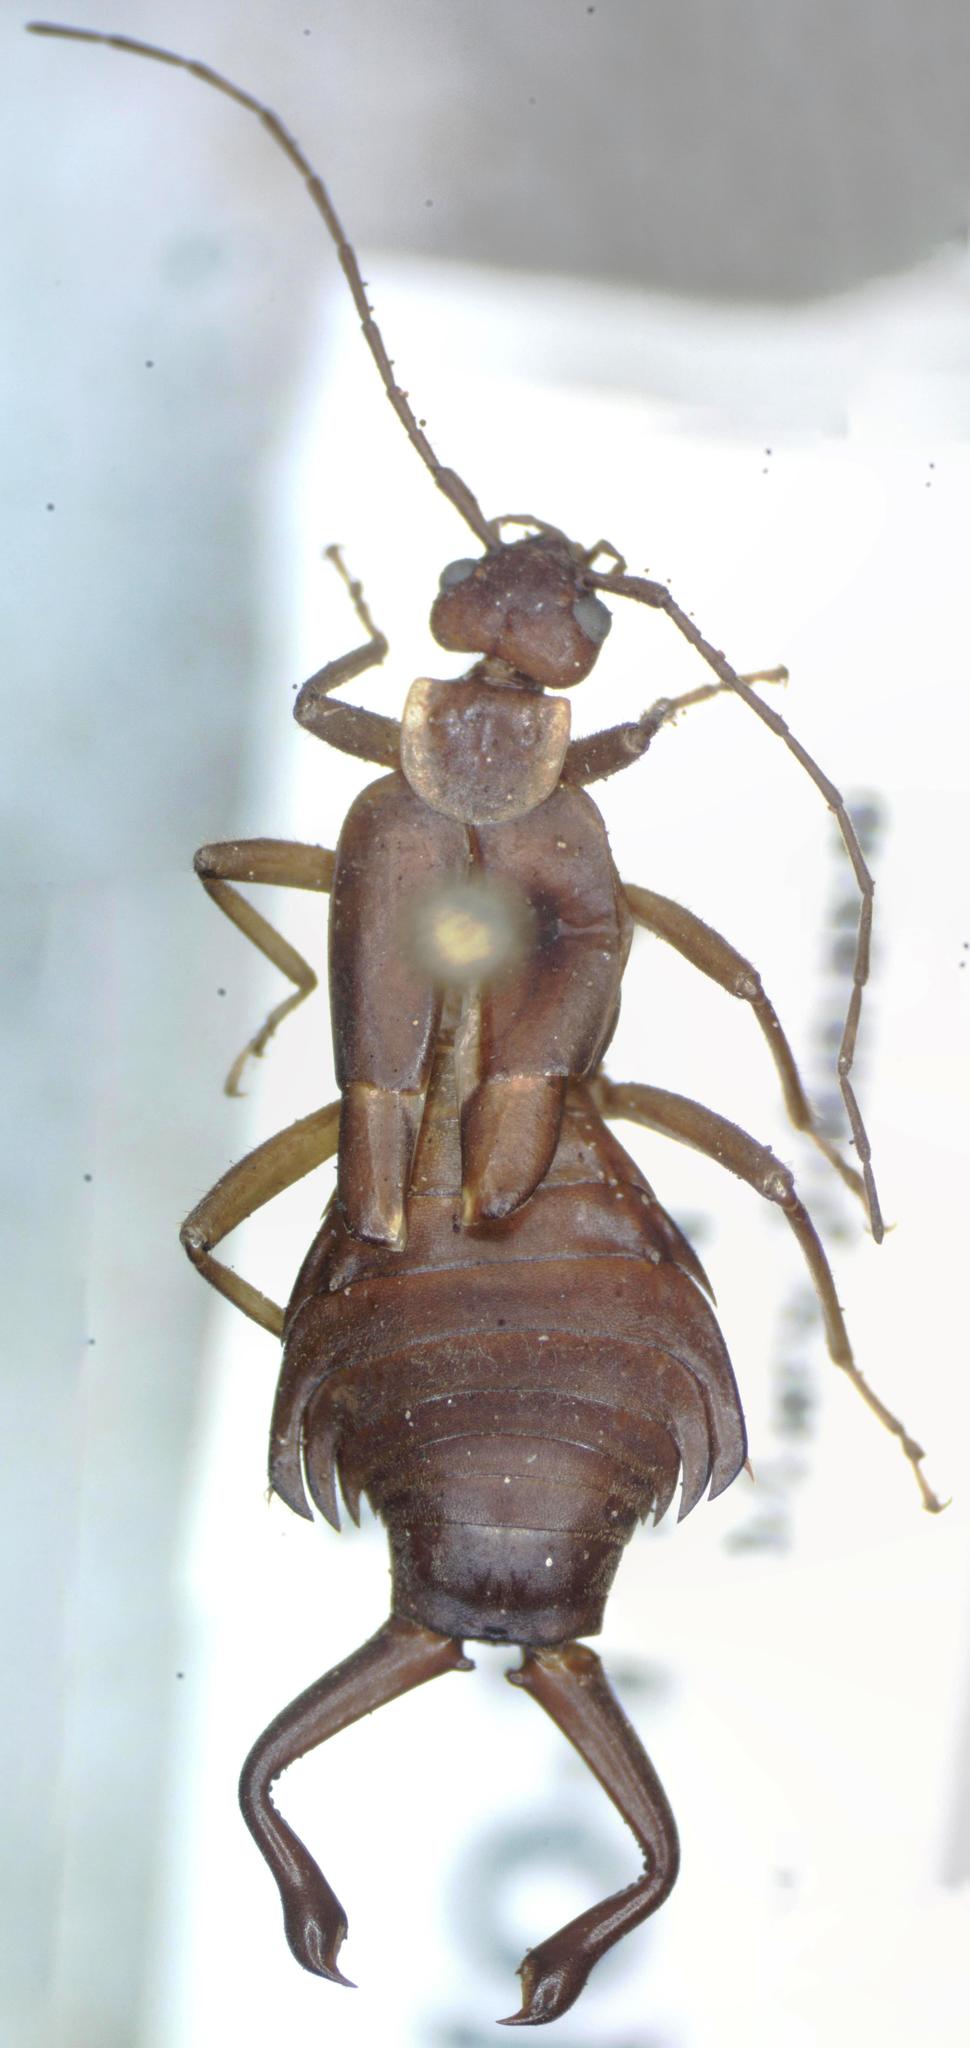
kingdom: Animalia
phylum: Arthropoda
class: Insecta
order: Dermaptera
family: Forficulidae
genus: Ancistrogaster
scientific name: Ancistrogaster luctuosus
